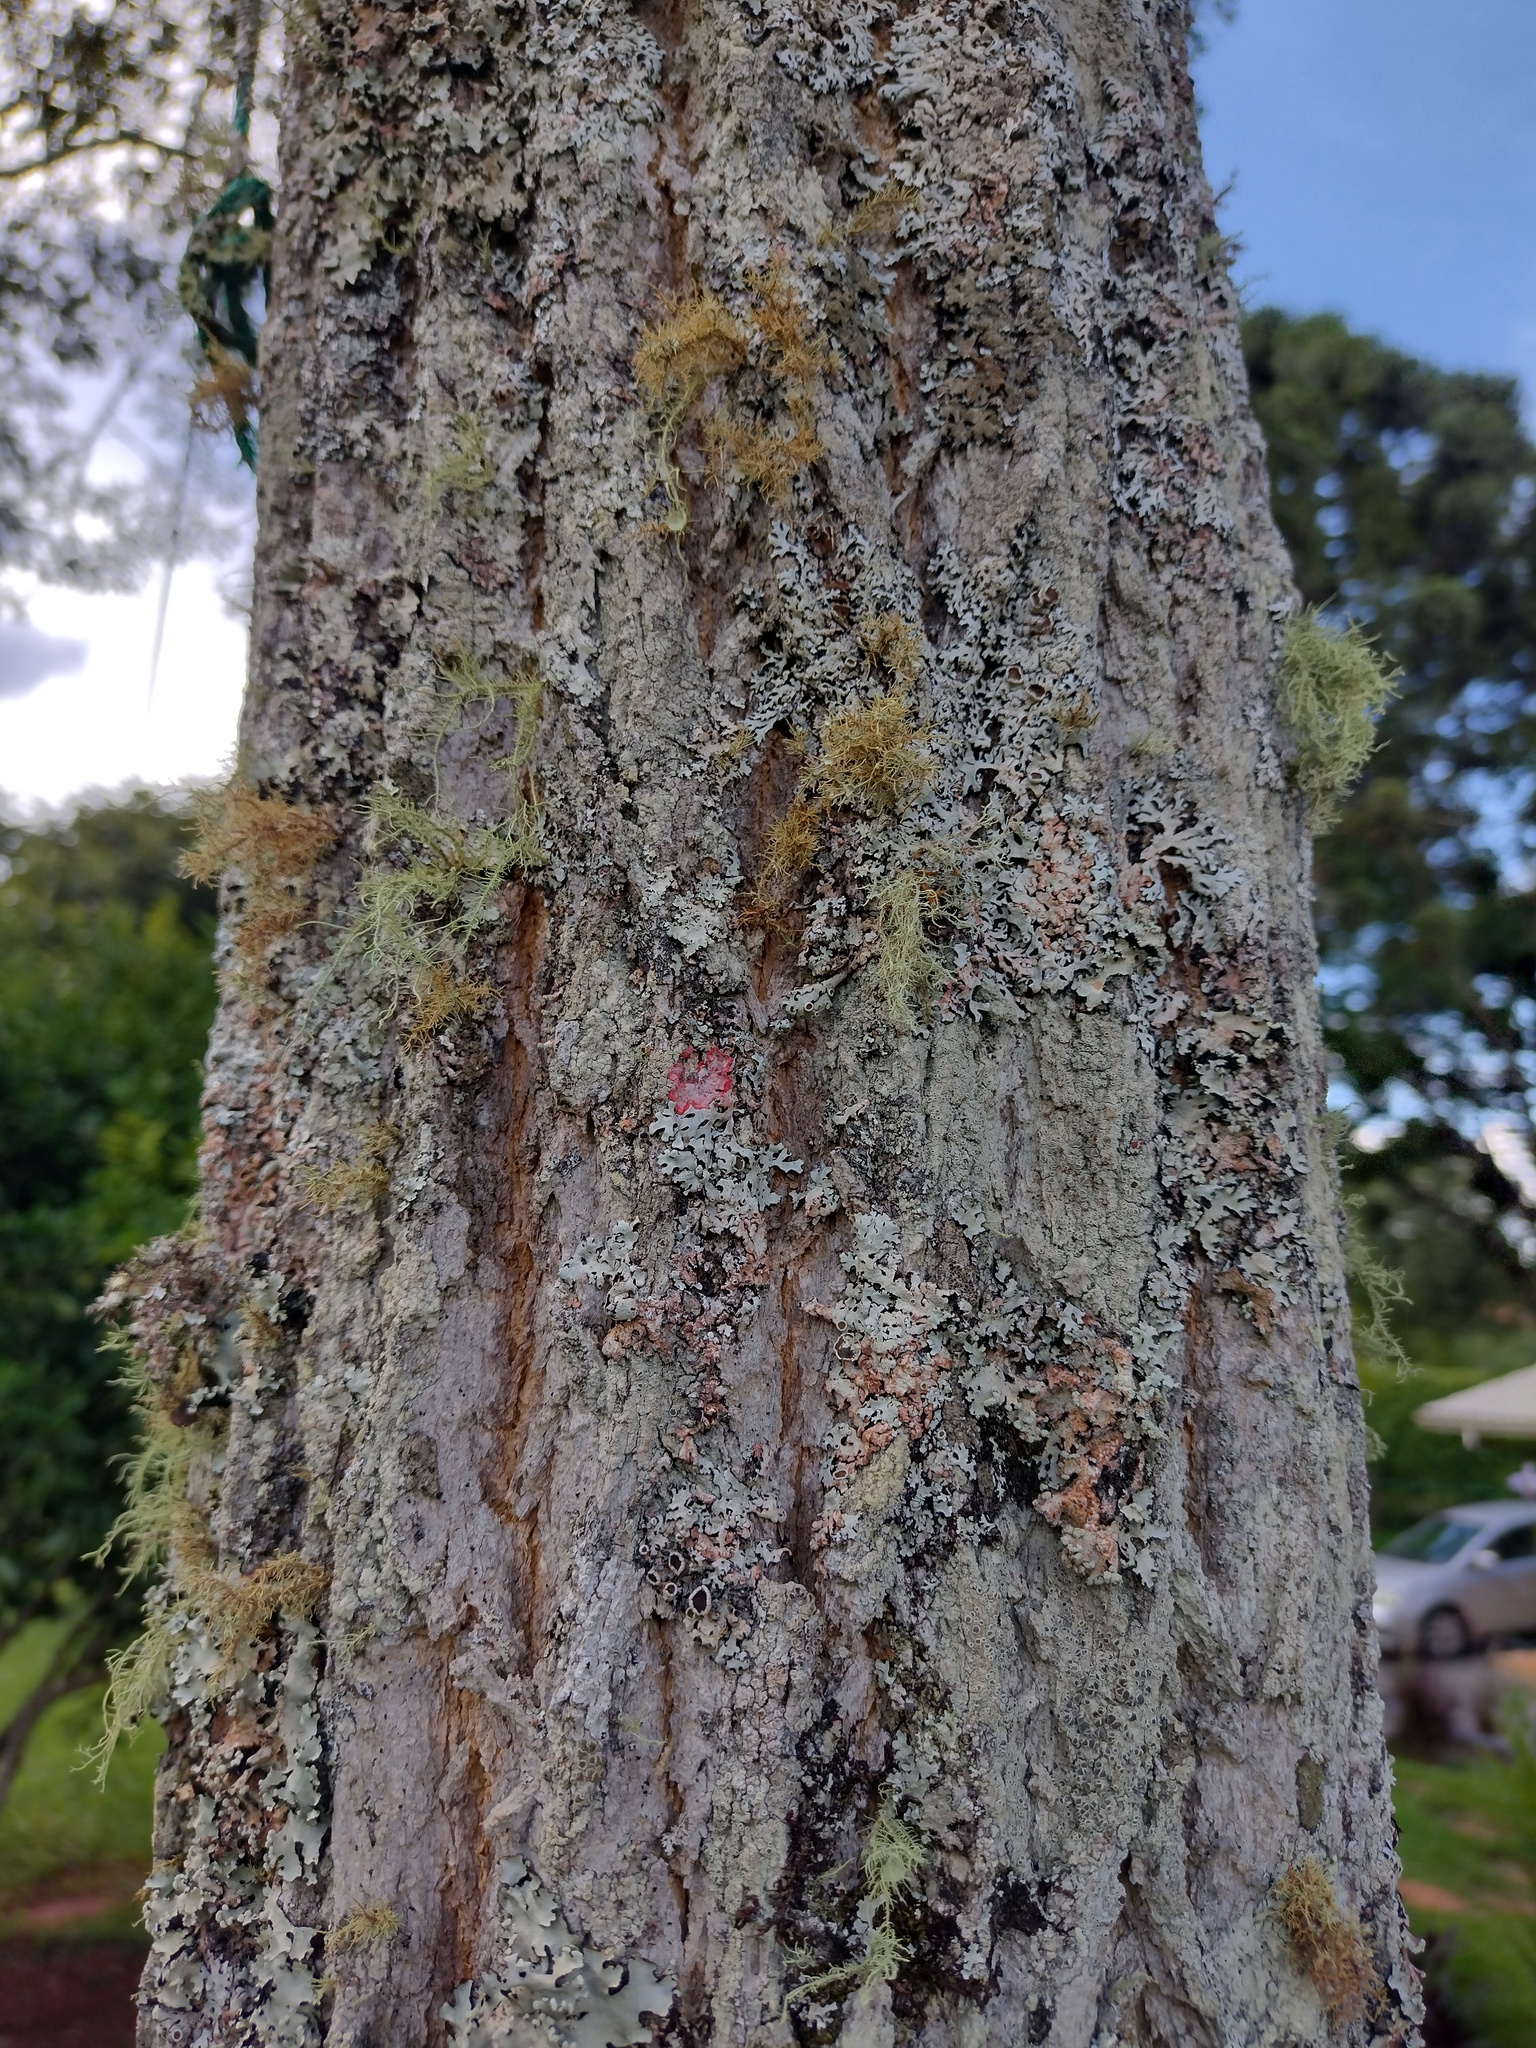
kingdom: Fungi
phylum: Ascomycota
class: Arthoniomycetes
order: Arthoniales
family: Arthoniaceae
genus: Herpothallon
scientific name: Herpothallon rubrocinctum
